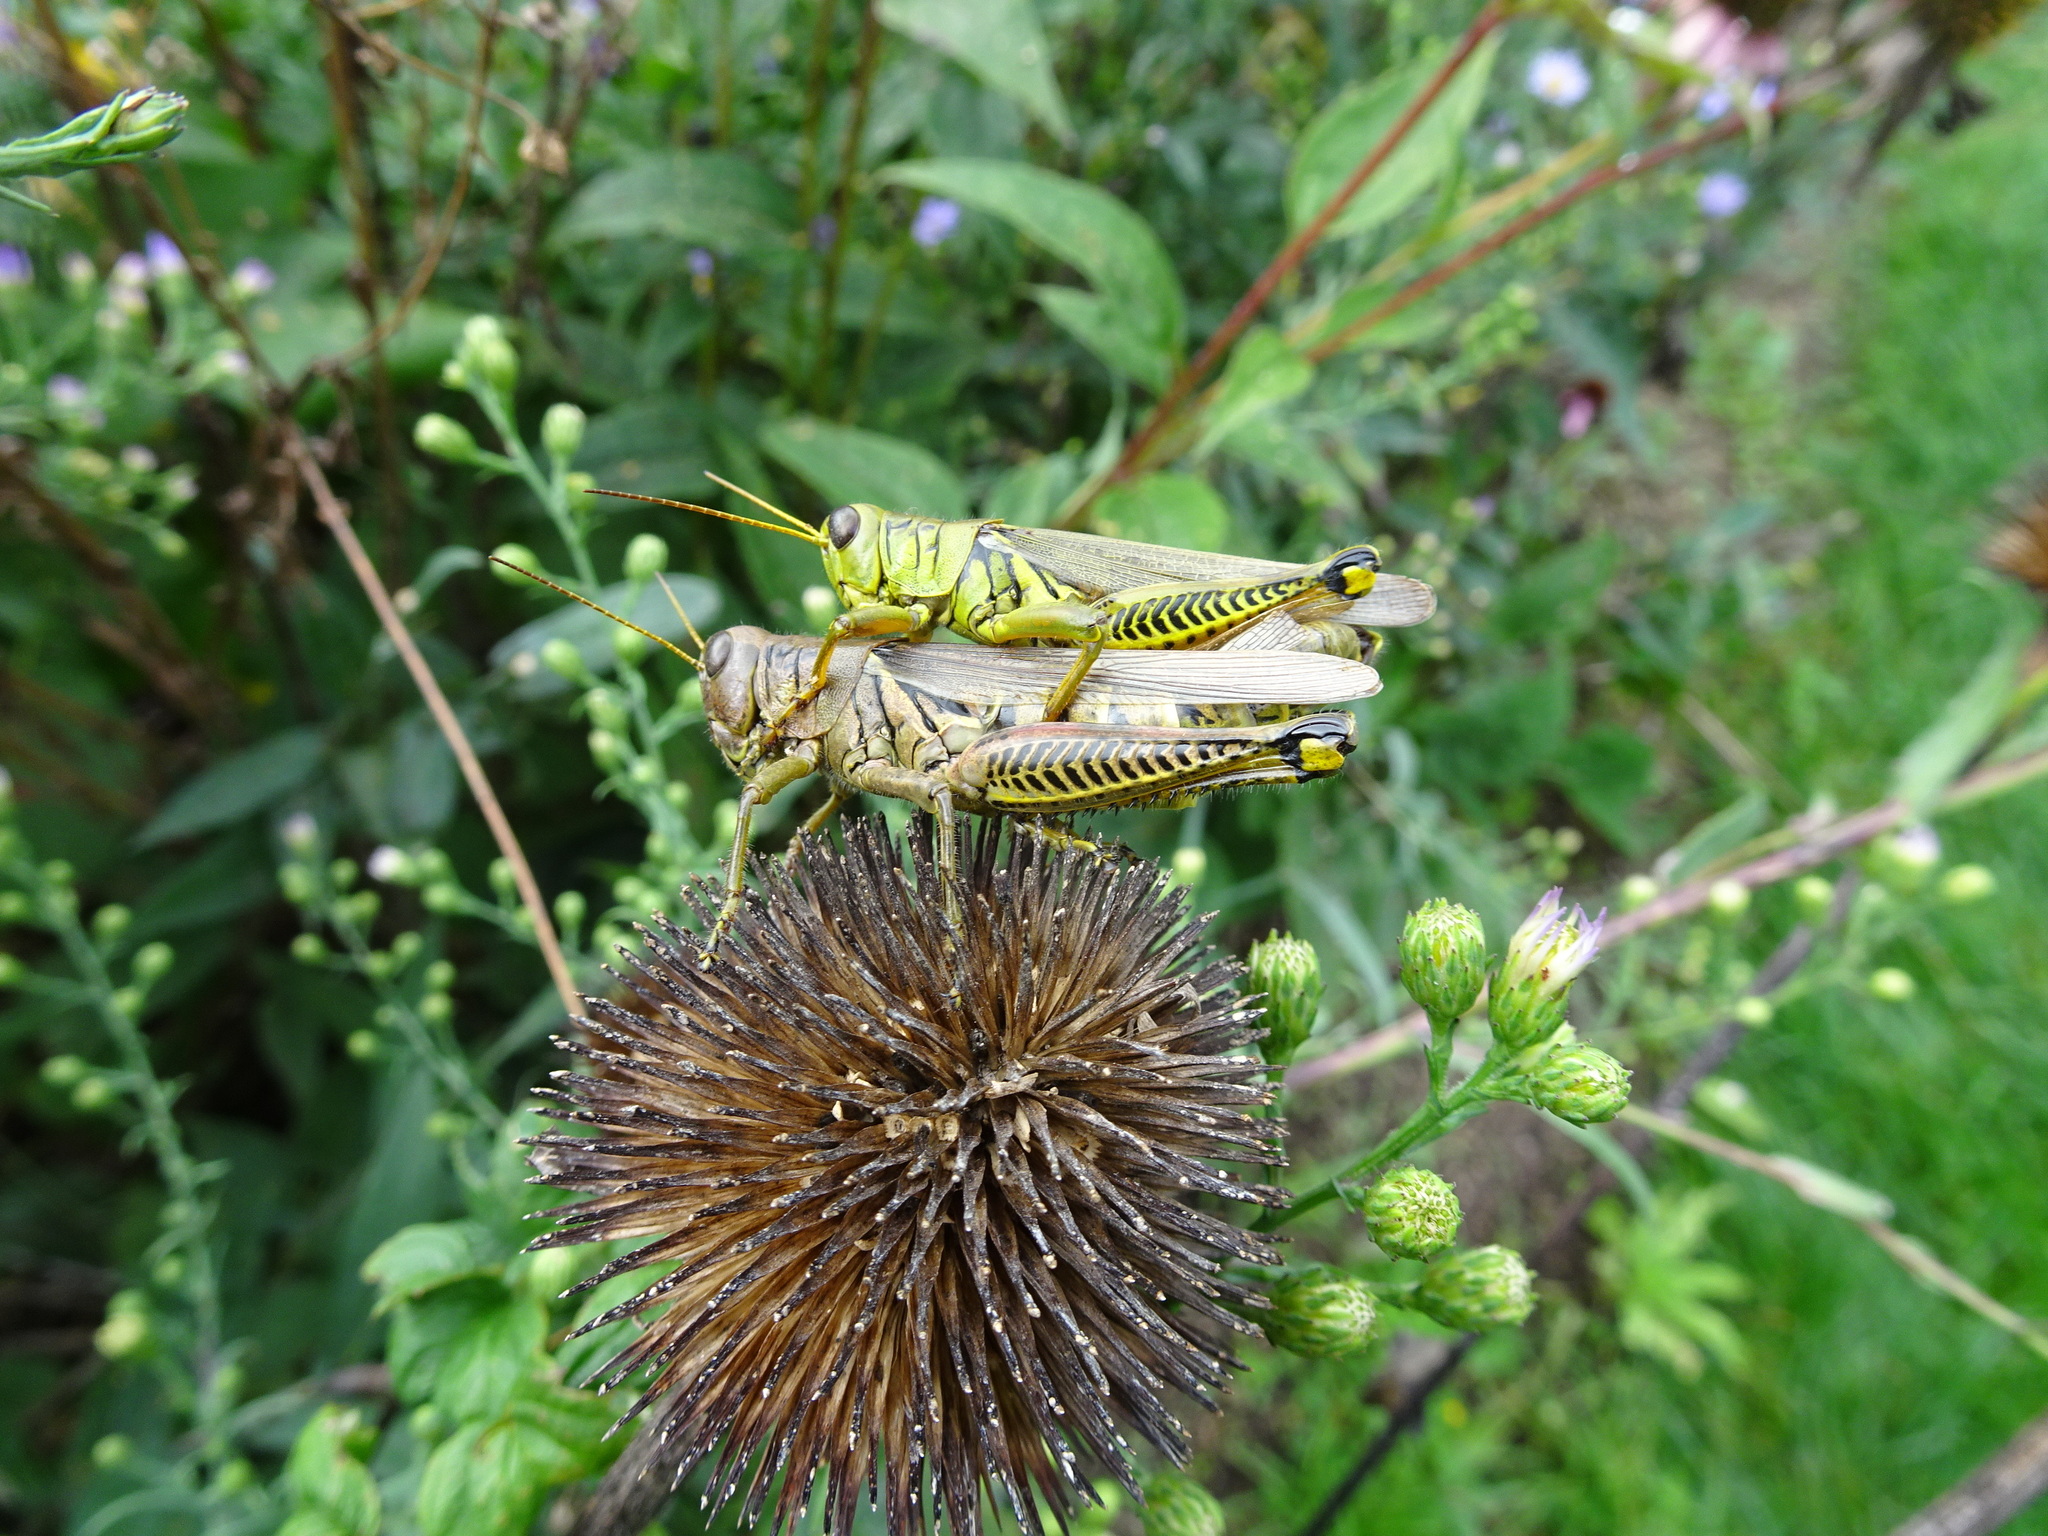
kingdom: Animalia
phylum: Arthropoda
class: Insecta
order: Orthoptera
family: Acrididae
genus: Melanoplus
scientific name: Melanoplus differentialis
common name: Differential grasshopper
